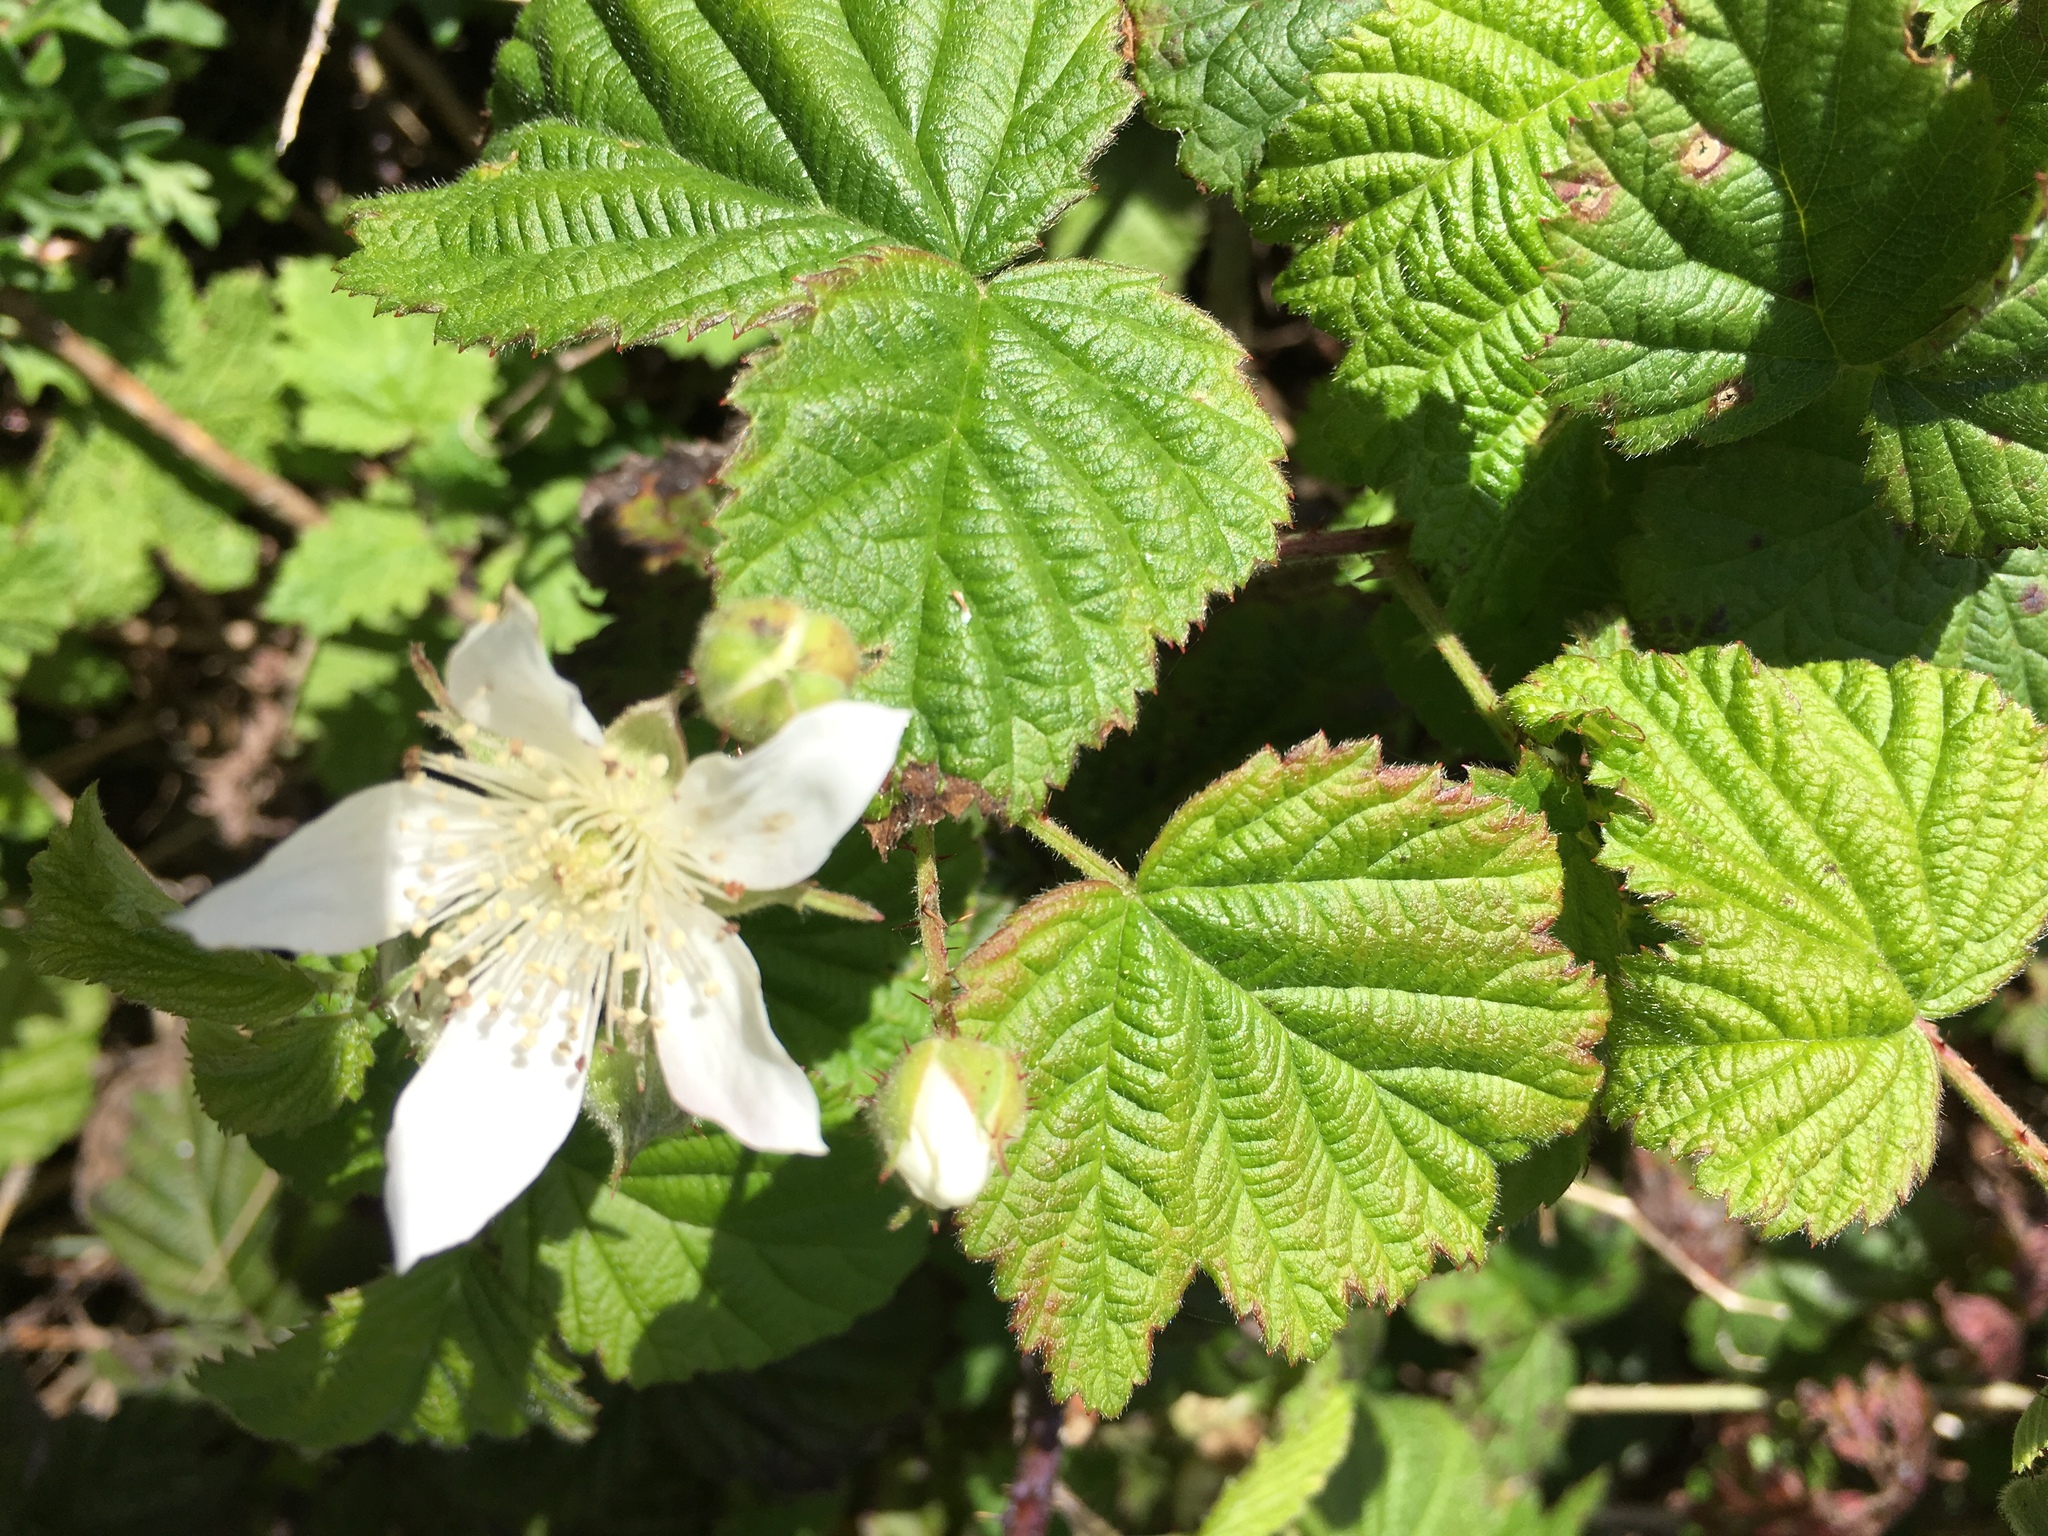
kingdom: Plantae
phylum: Tracheophyta
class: Magnoliopsida
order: Rosales
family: Rosaceae
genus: Rubus
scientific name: Rubus ursinus
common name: Pacific blackberry
